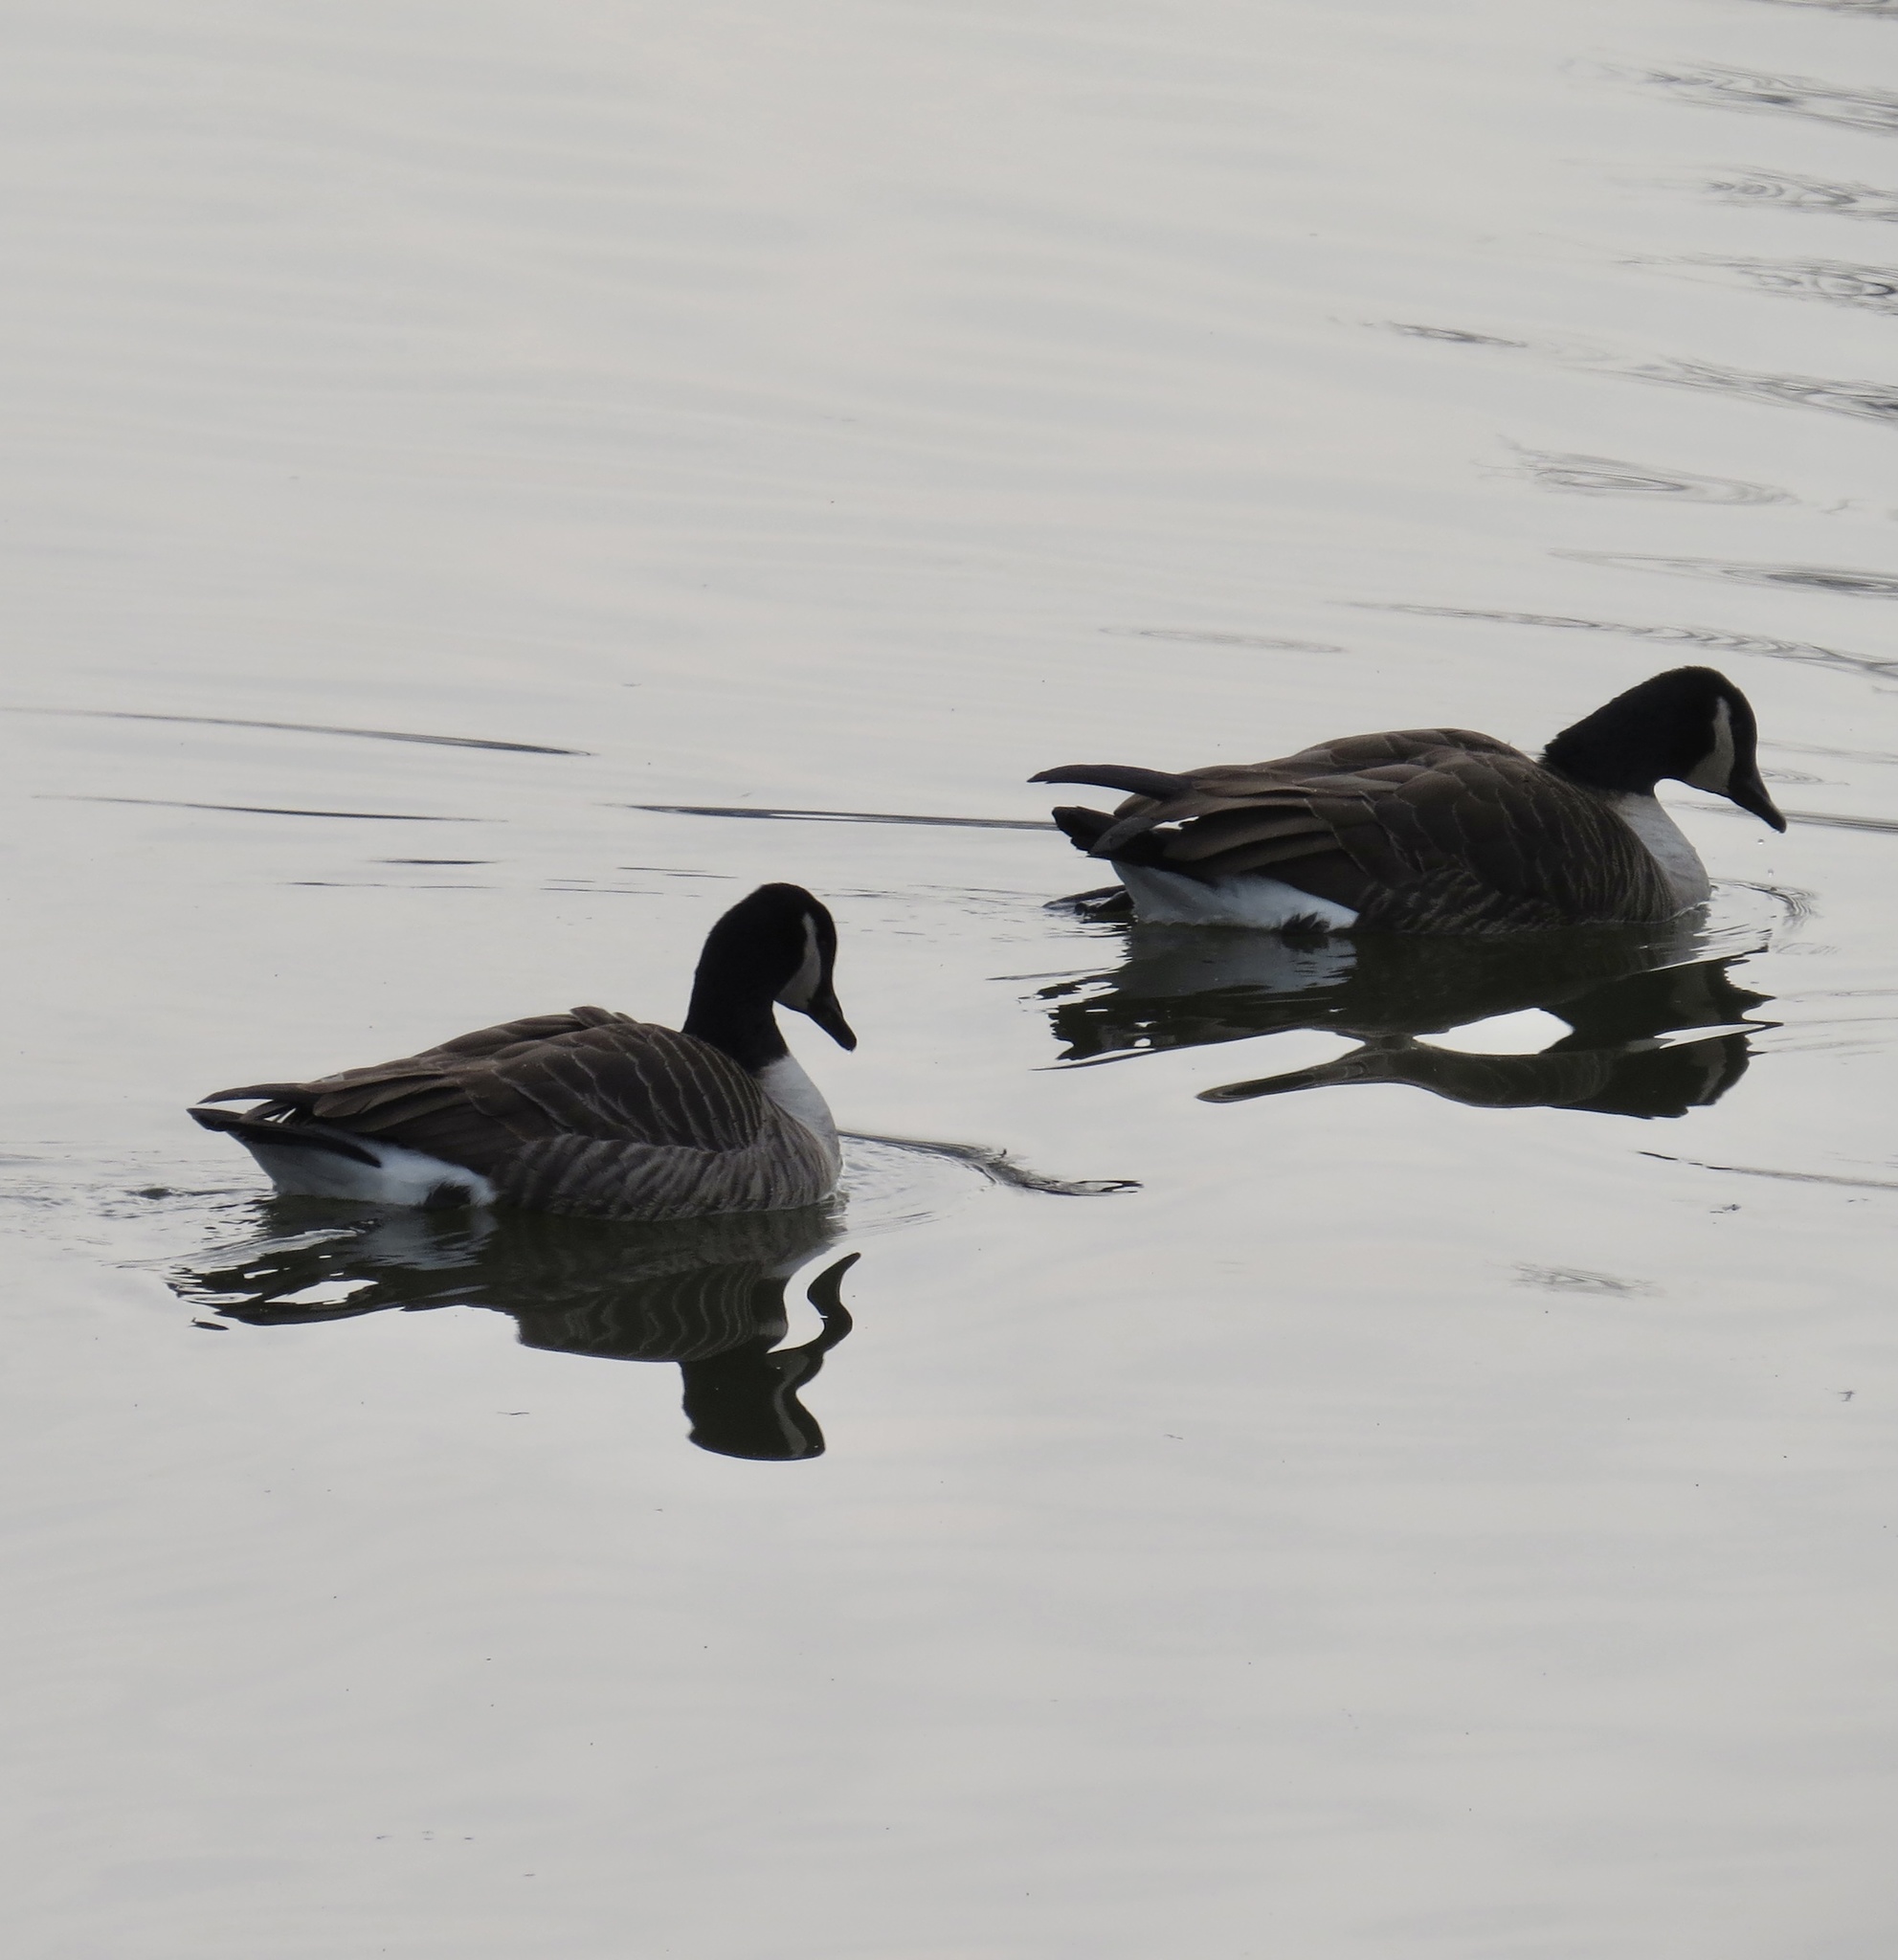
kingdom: Animalia
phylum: Chordata
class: Aves
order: Anseriformes
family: Anatidae
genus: Branta
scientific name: Branta canadensis
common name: Canada goose
